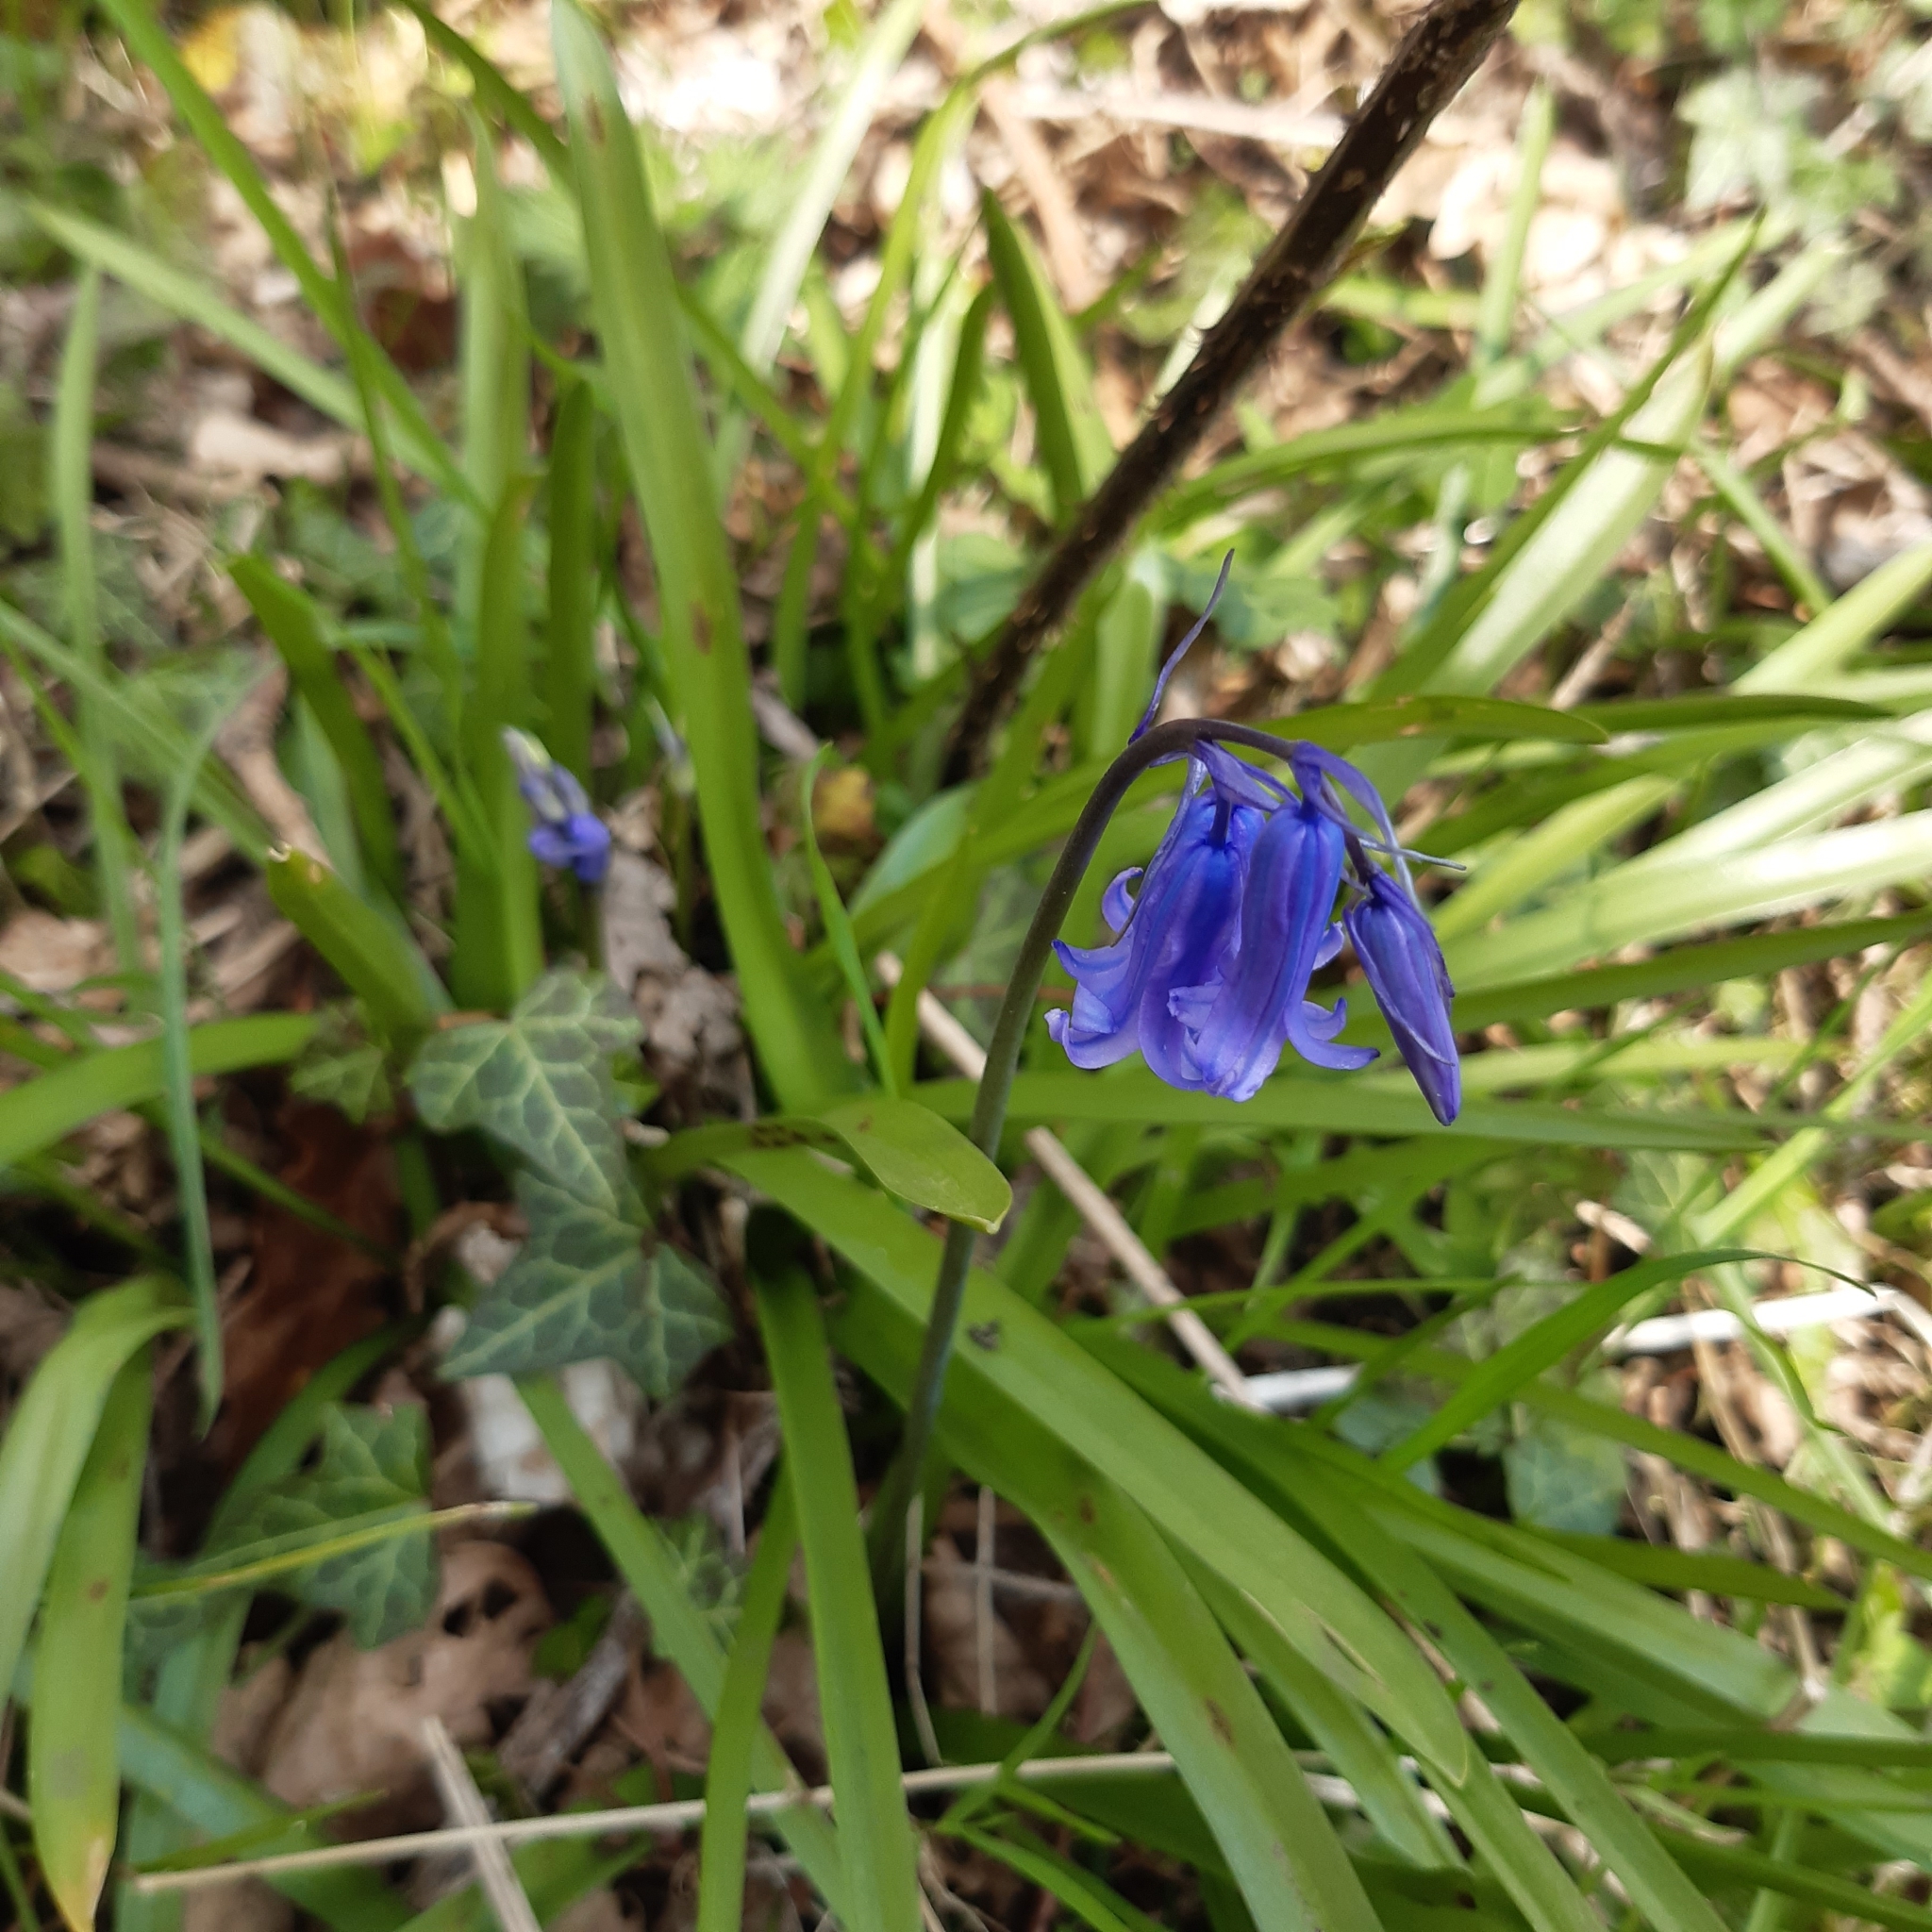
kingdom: Plantae
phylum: Tracheophyta
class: Liliopsida
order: Asparagales
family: Asparagaceae
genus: Hyacinthoides
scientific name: Hyacinthoides non-scripta
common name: Bluebell
